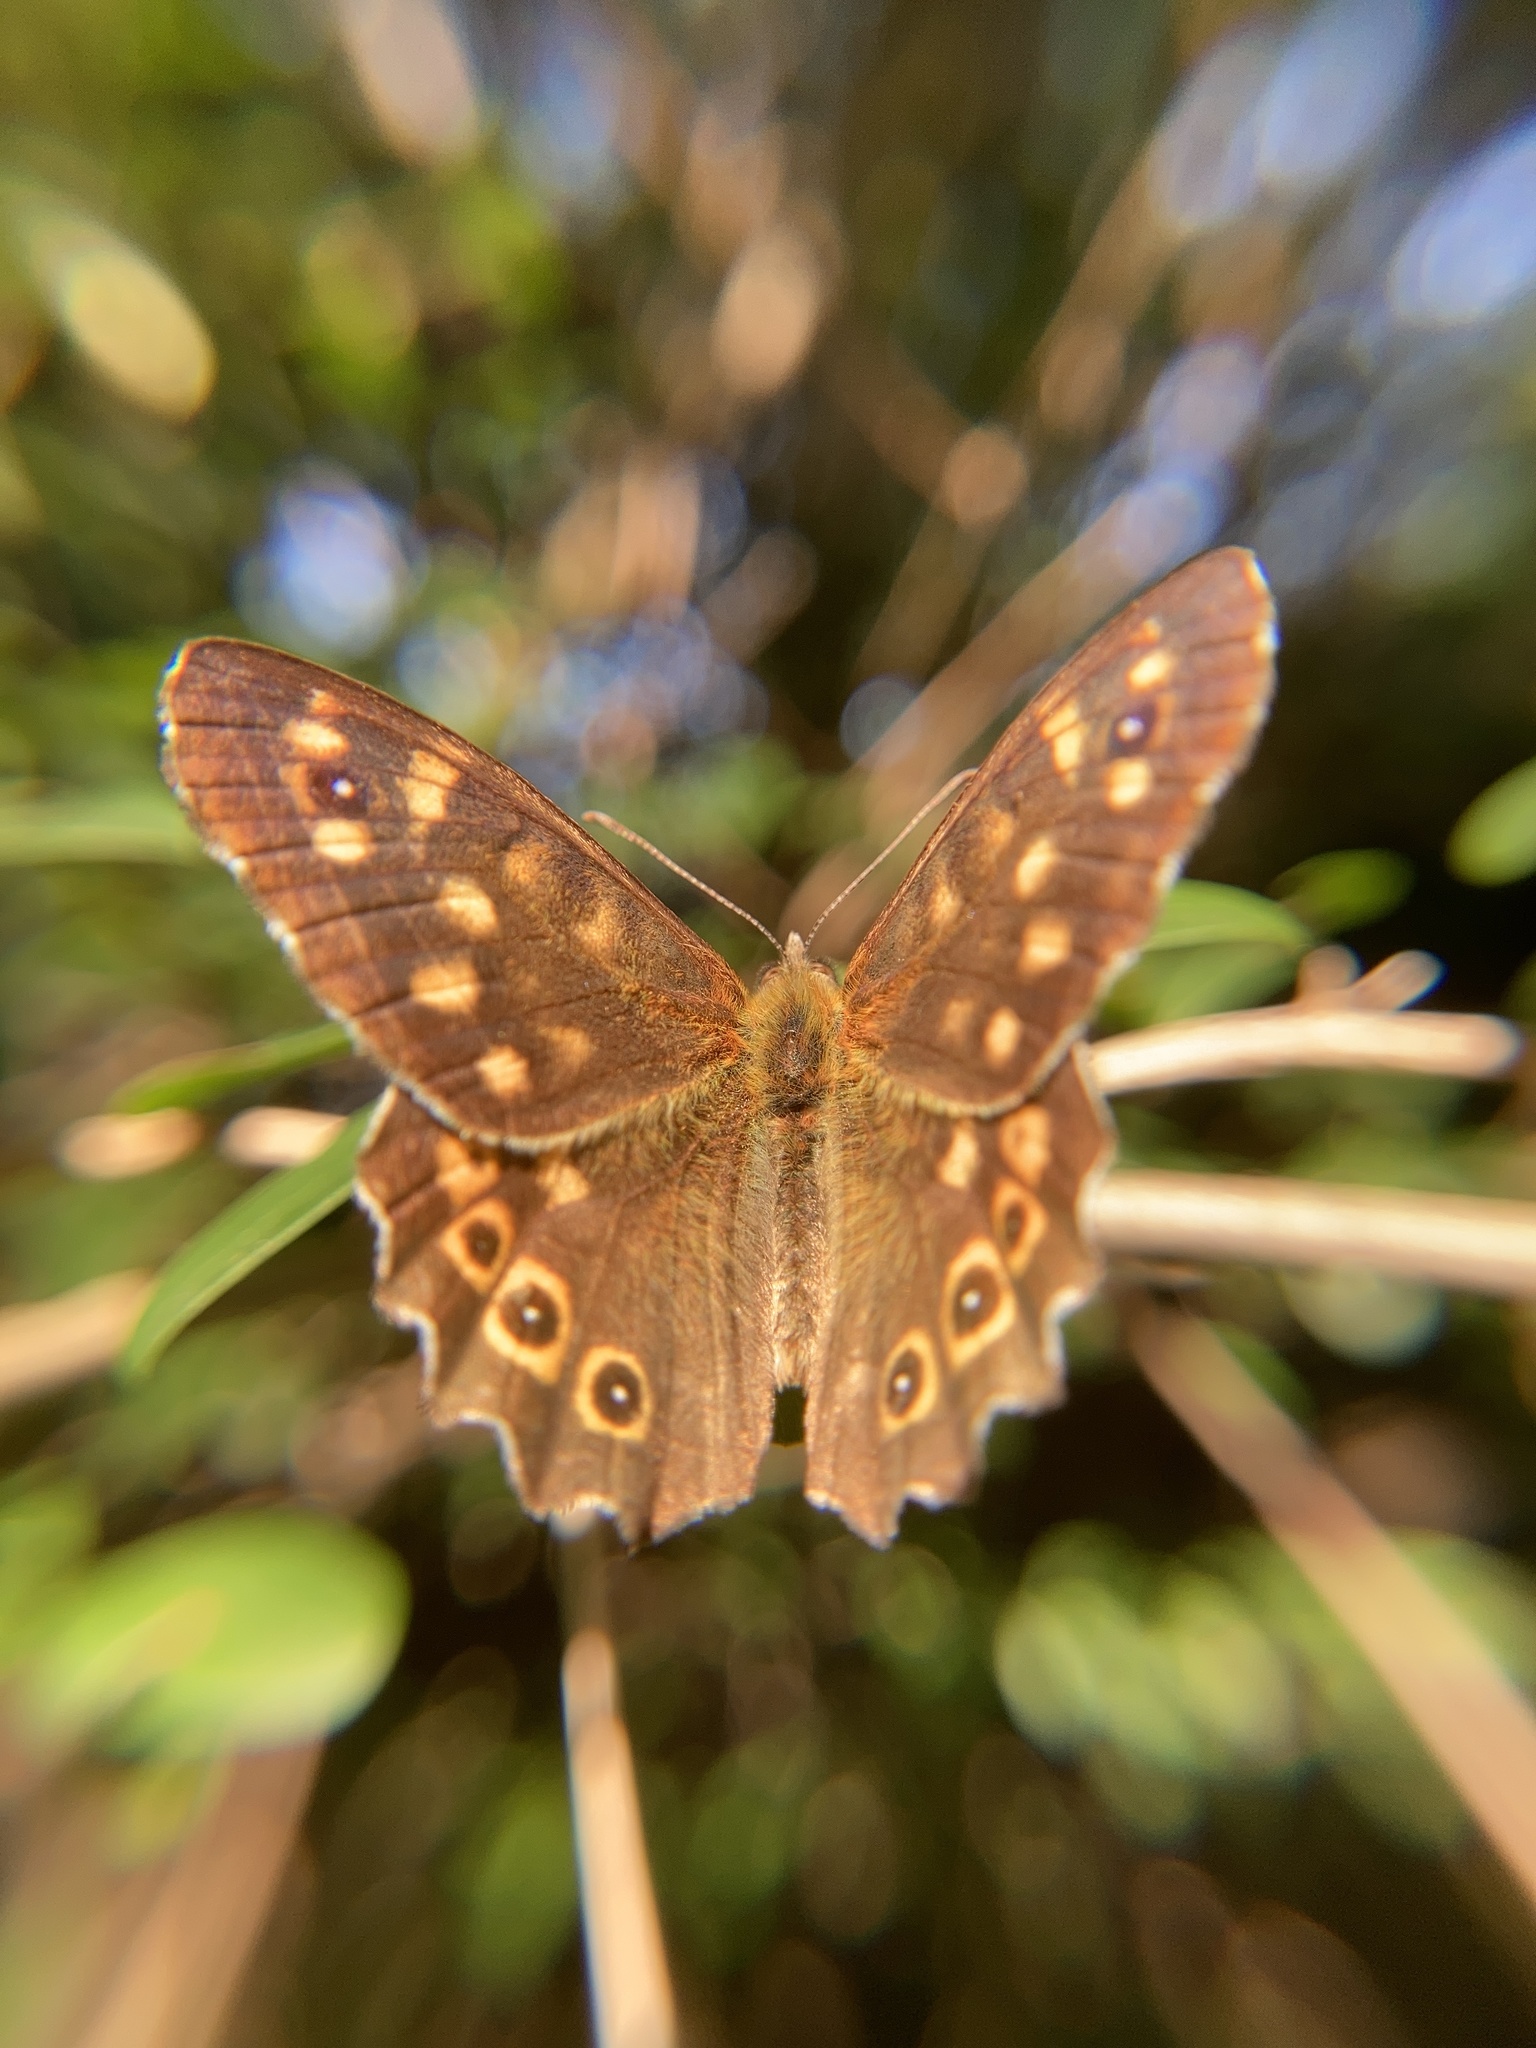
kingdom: Animalia
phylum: Arthropoda
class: Insecta
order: Lepidoptera
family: Nymphalidae
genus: Pararge
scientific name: Pararge aegeria
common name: Speckled wood
